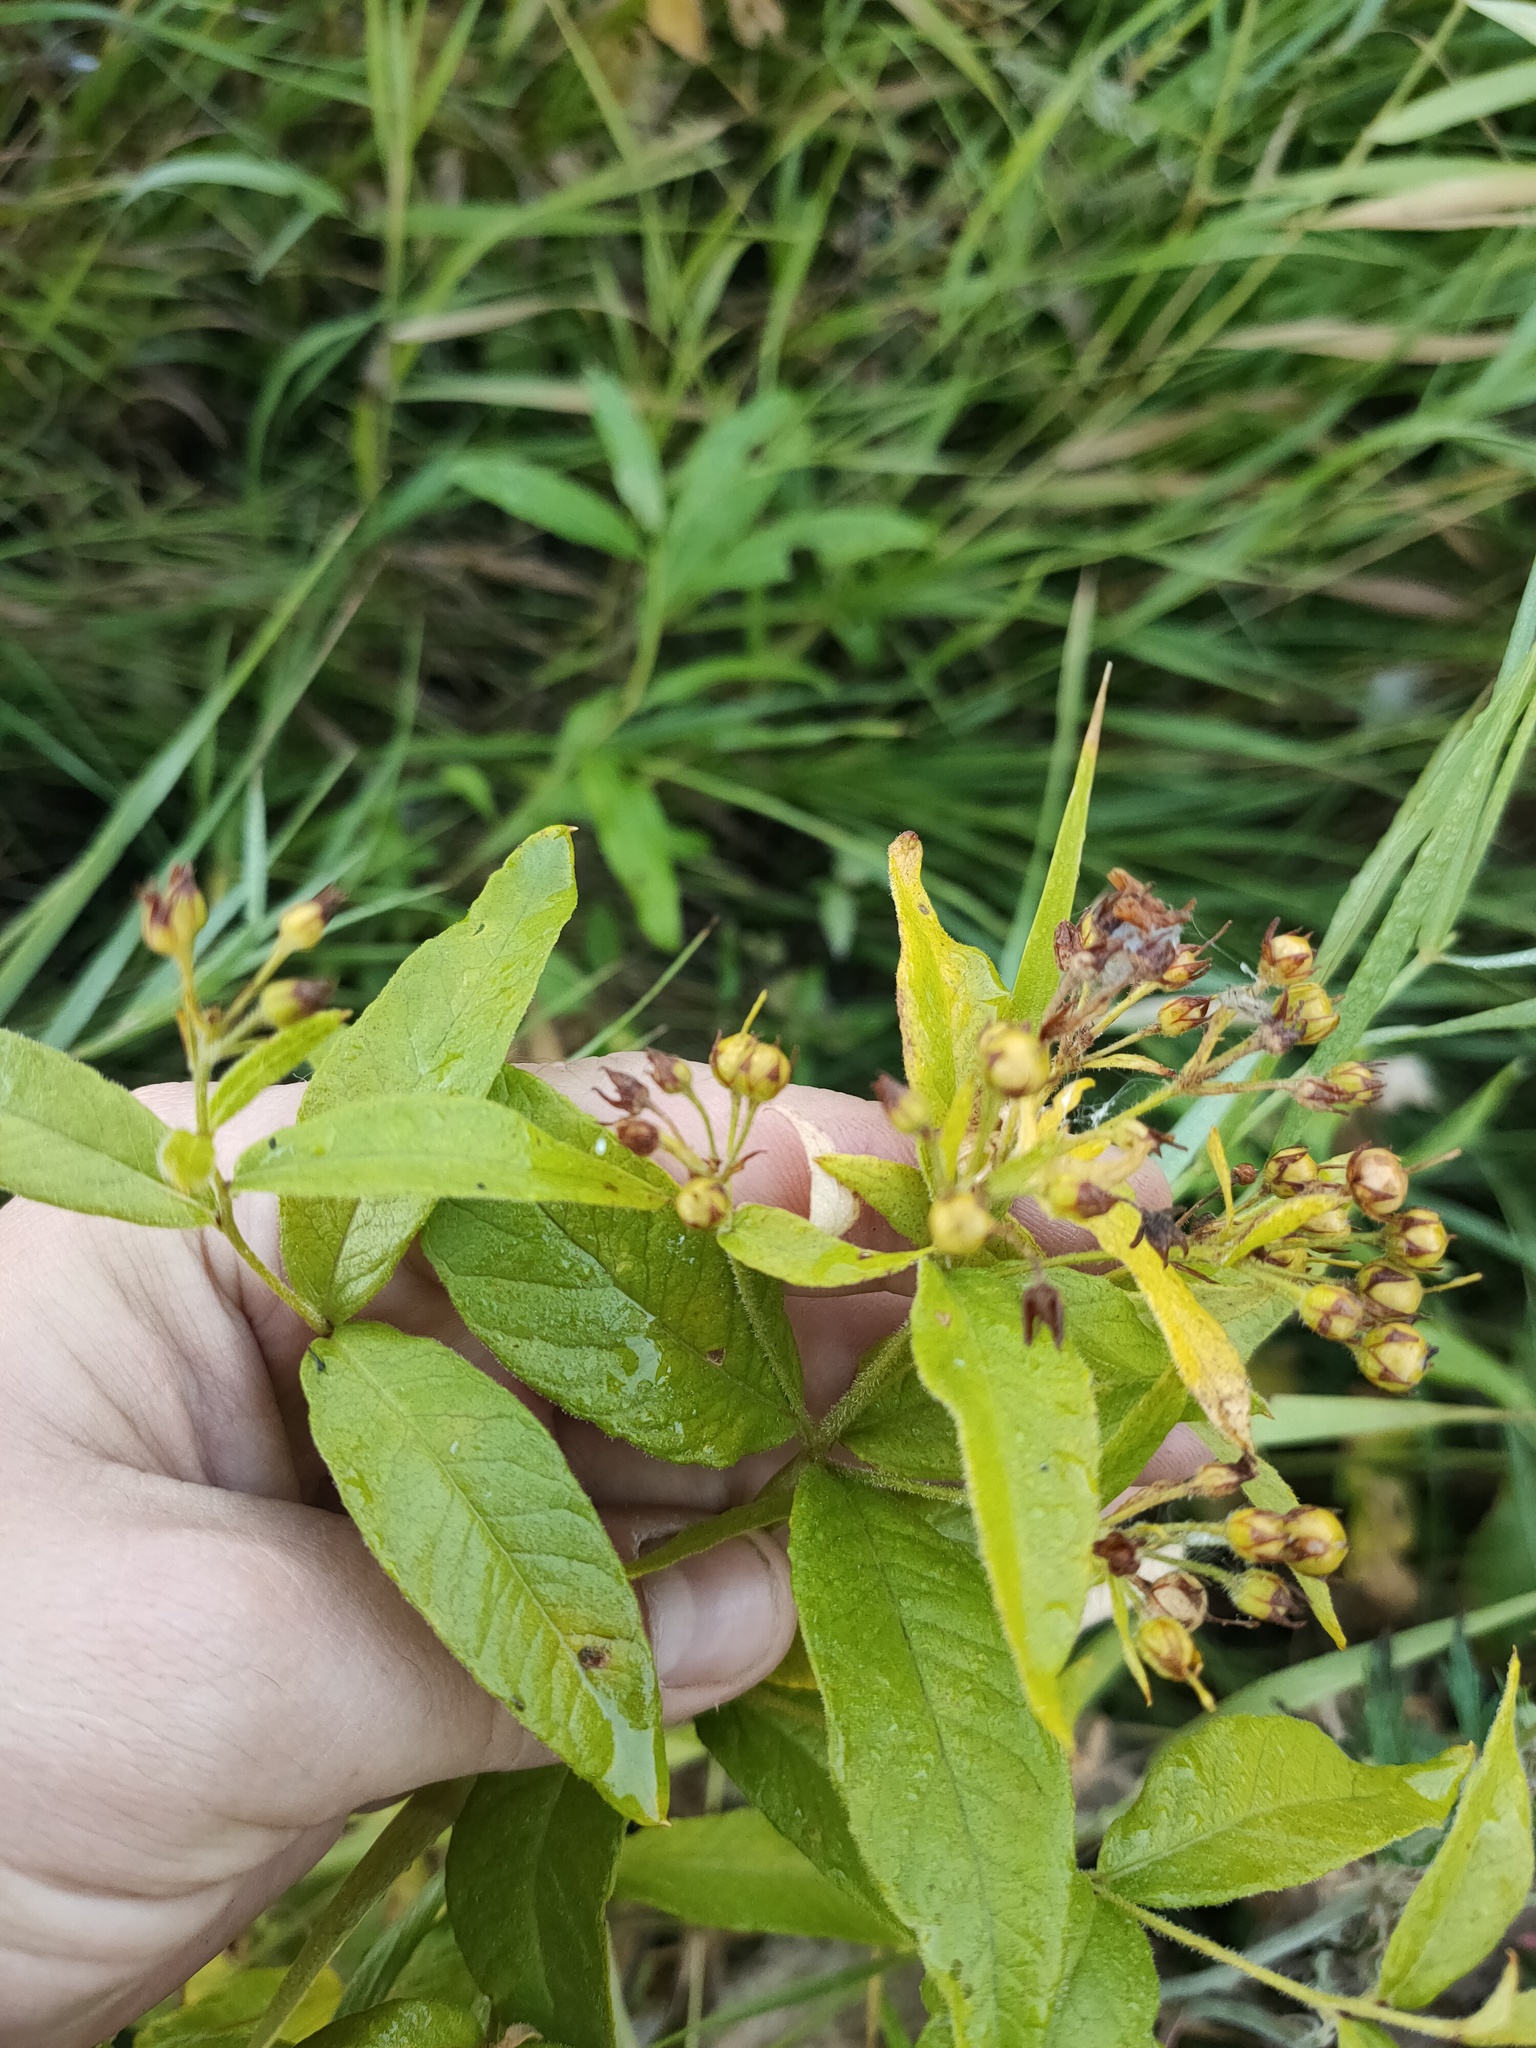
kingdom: Plantae
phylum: Tracheophyta
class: Magnoliopsida
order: Ericales
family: Primulaceae
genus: Lysimachia
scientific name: Lysimachia vulgaris
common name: Yellow loosestrife
